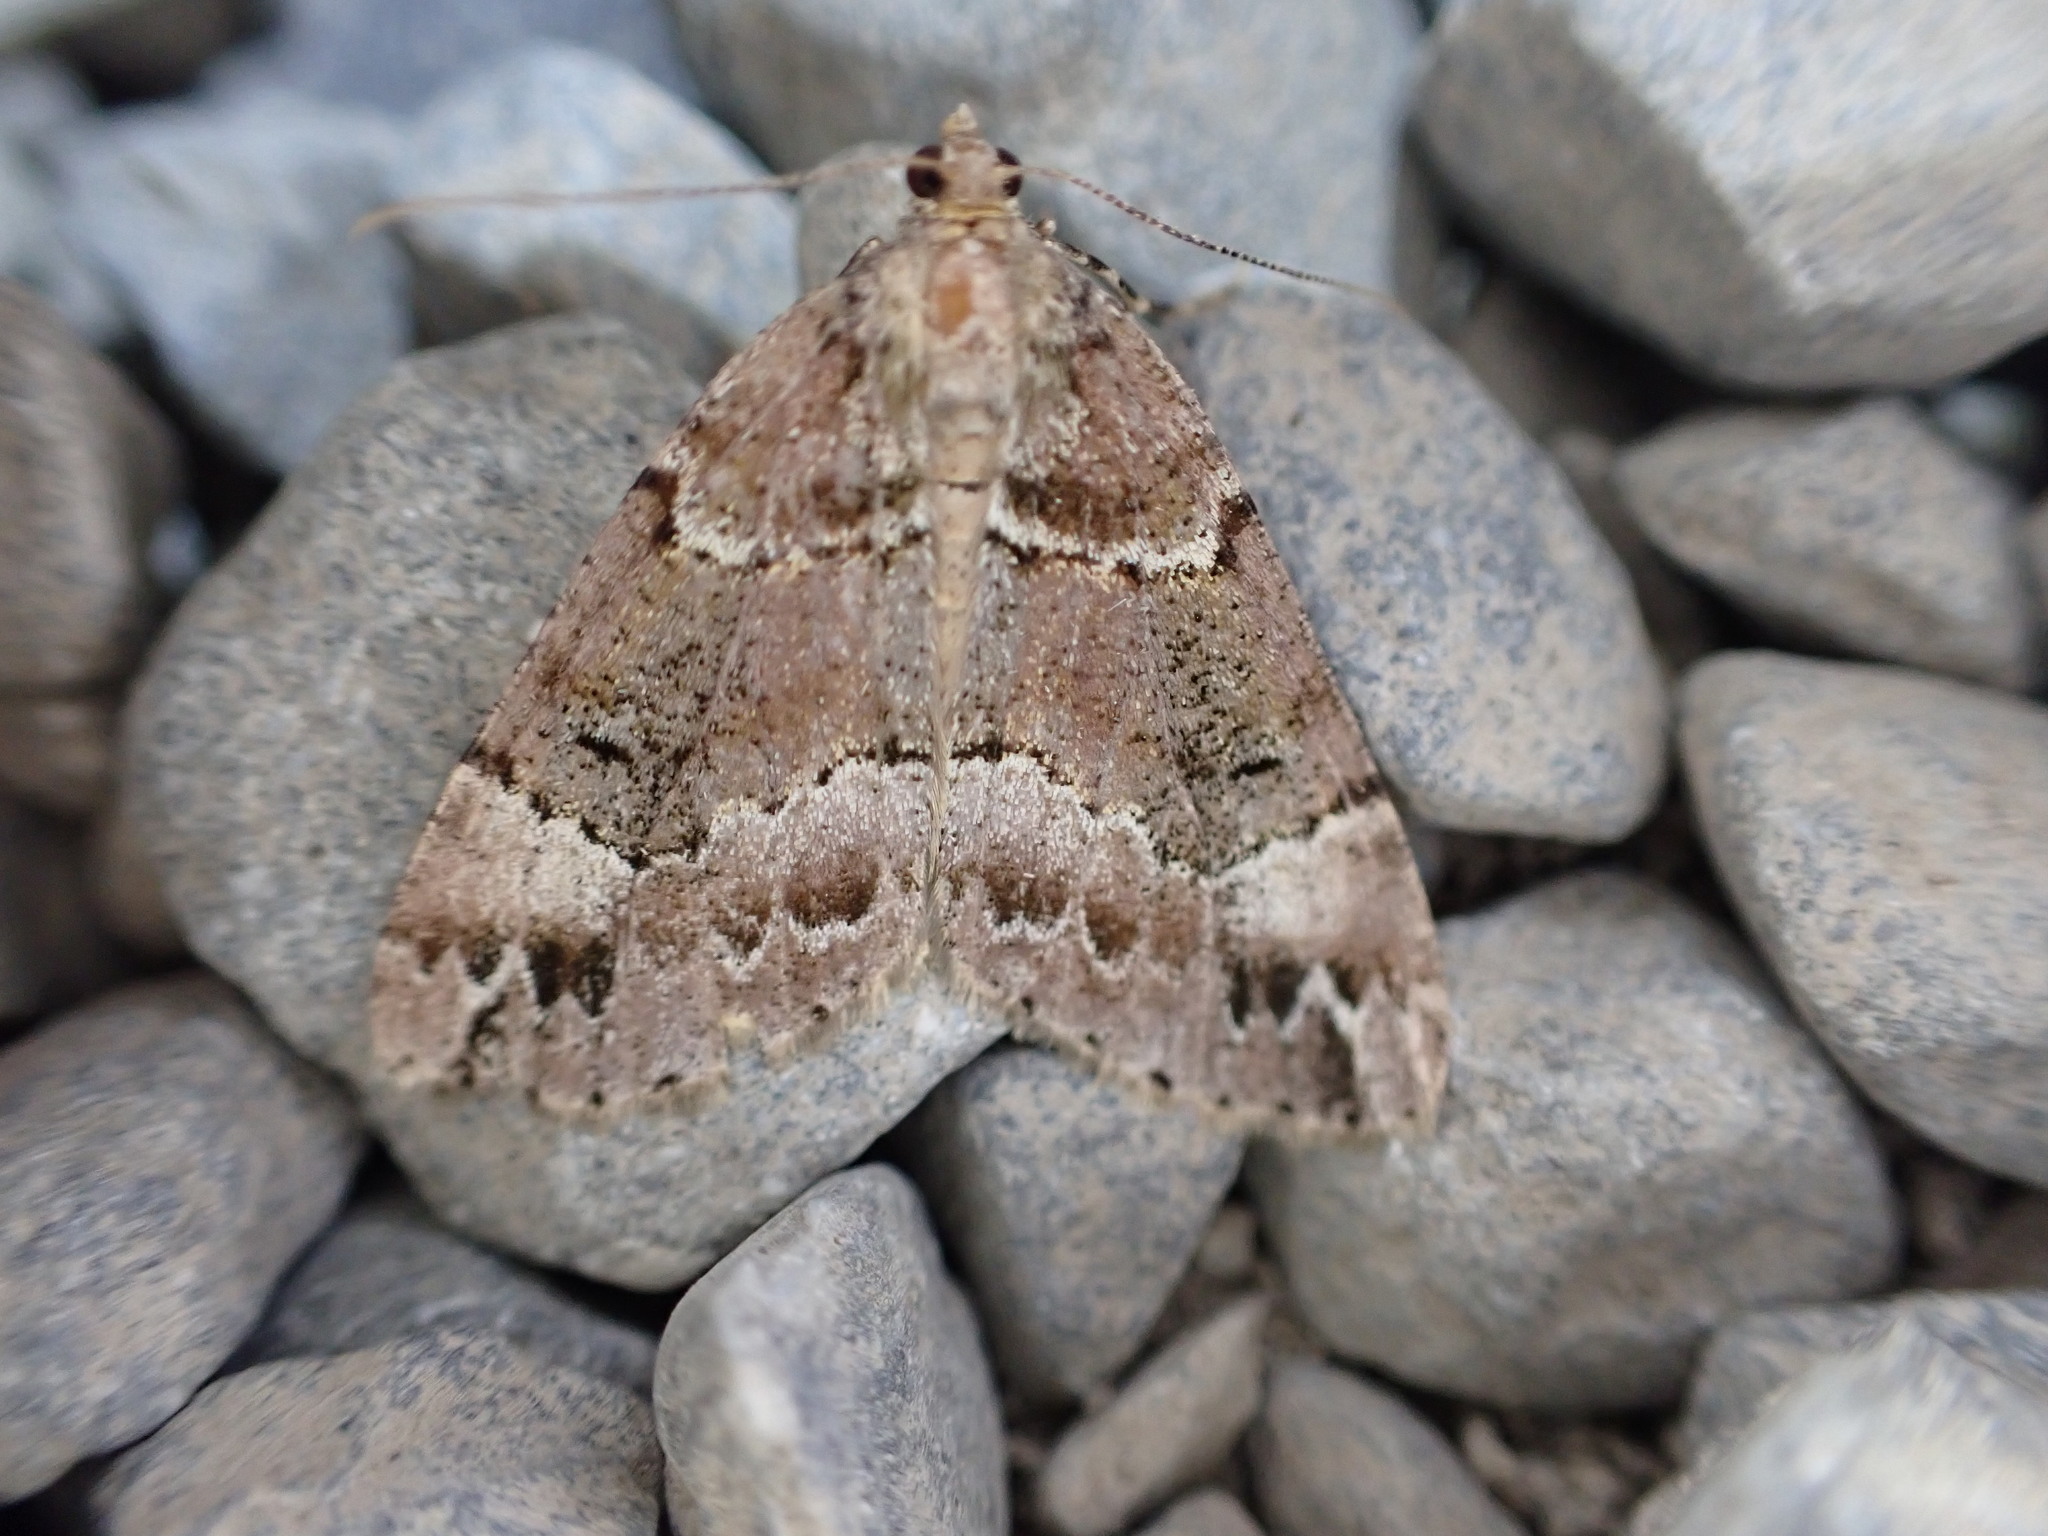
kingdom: Animalia
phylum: Arthropoda
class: Insecta
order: Lepidoptera
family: Geometridae
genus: Pseudocoremia
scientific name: Pseudocoremia productata
